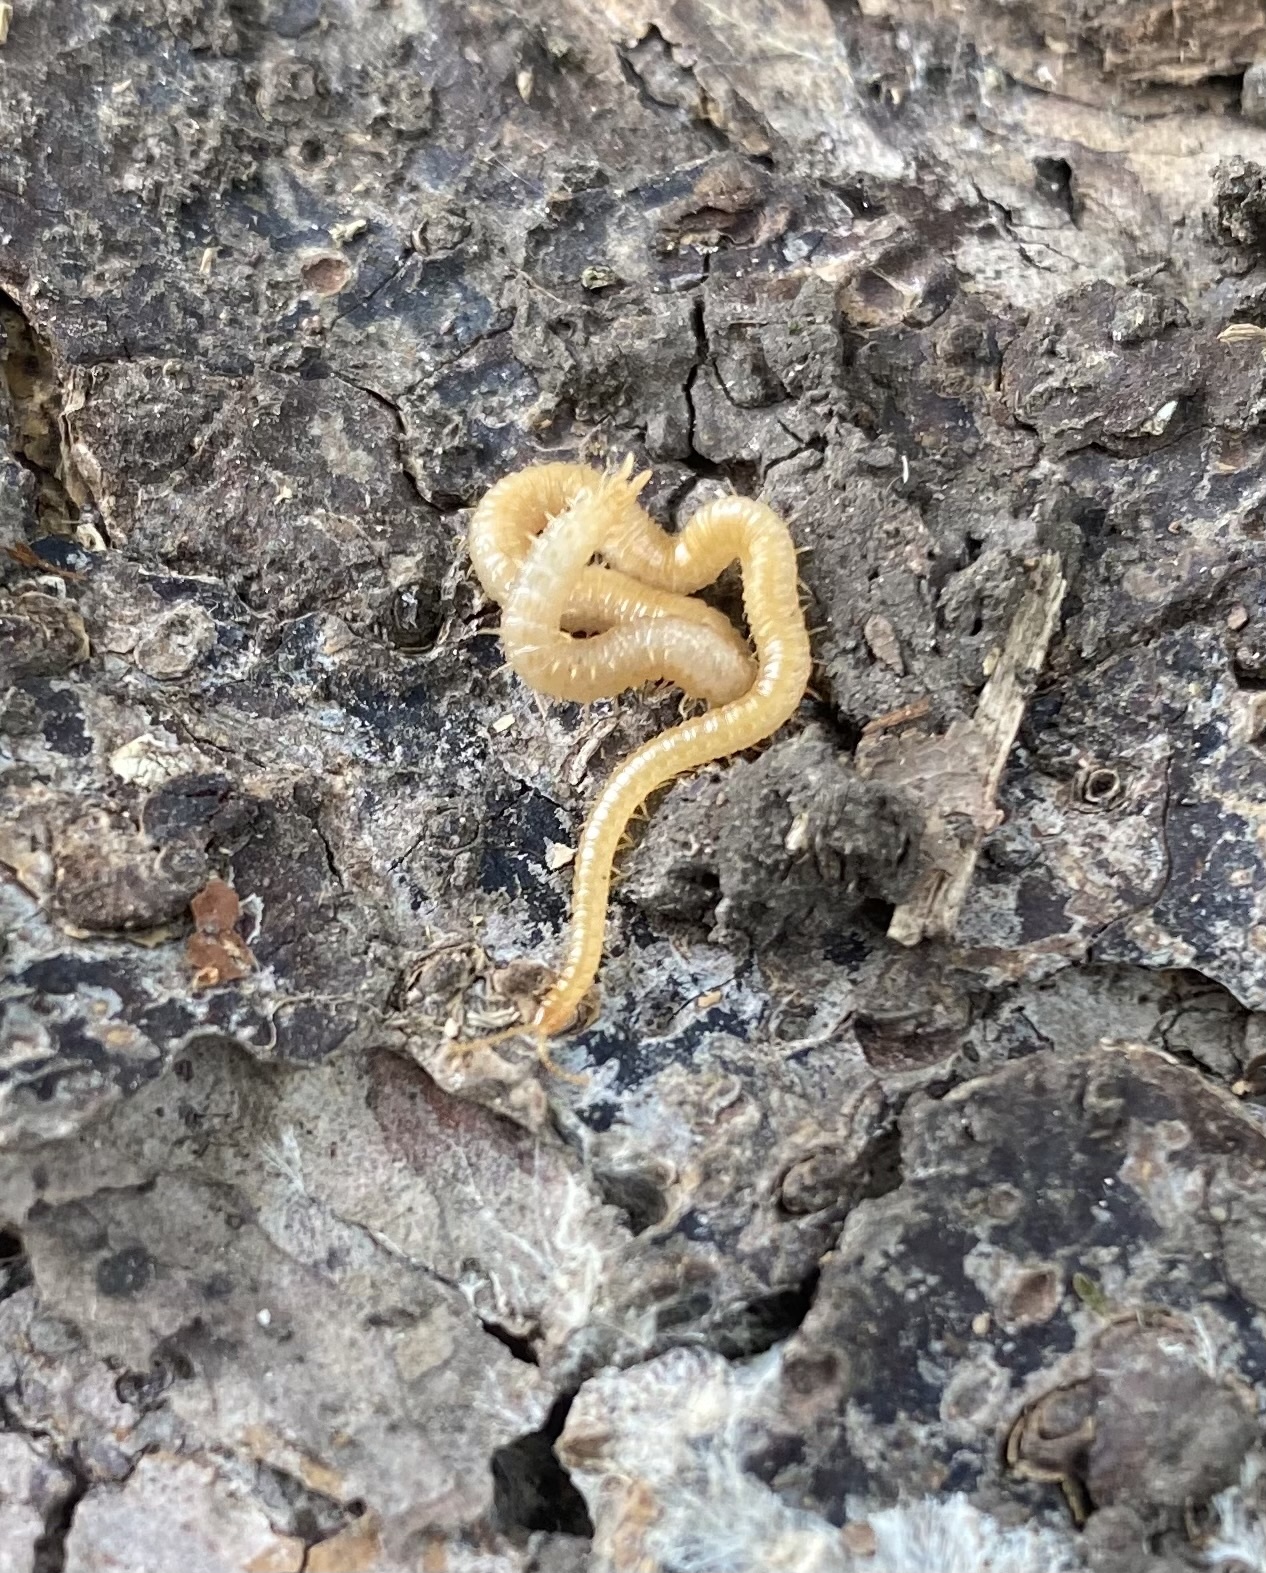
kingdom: Animalia
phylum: Arthropoda
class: Chilopoda
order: Geophilomorpha
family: Dignathodontidae
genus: Henia
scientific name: Henia illyrica
